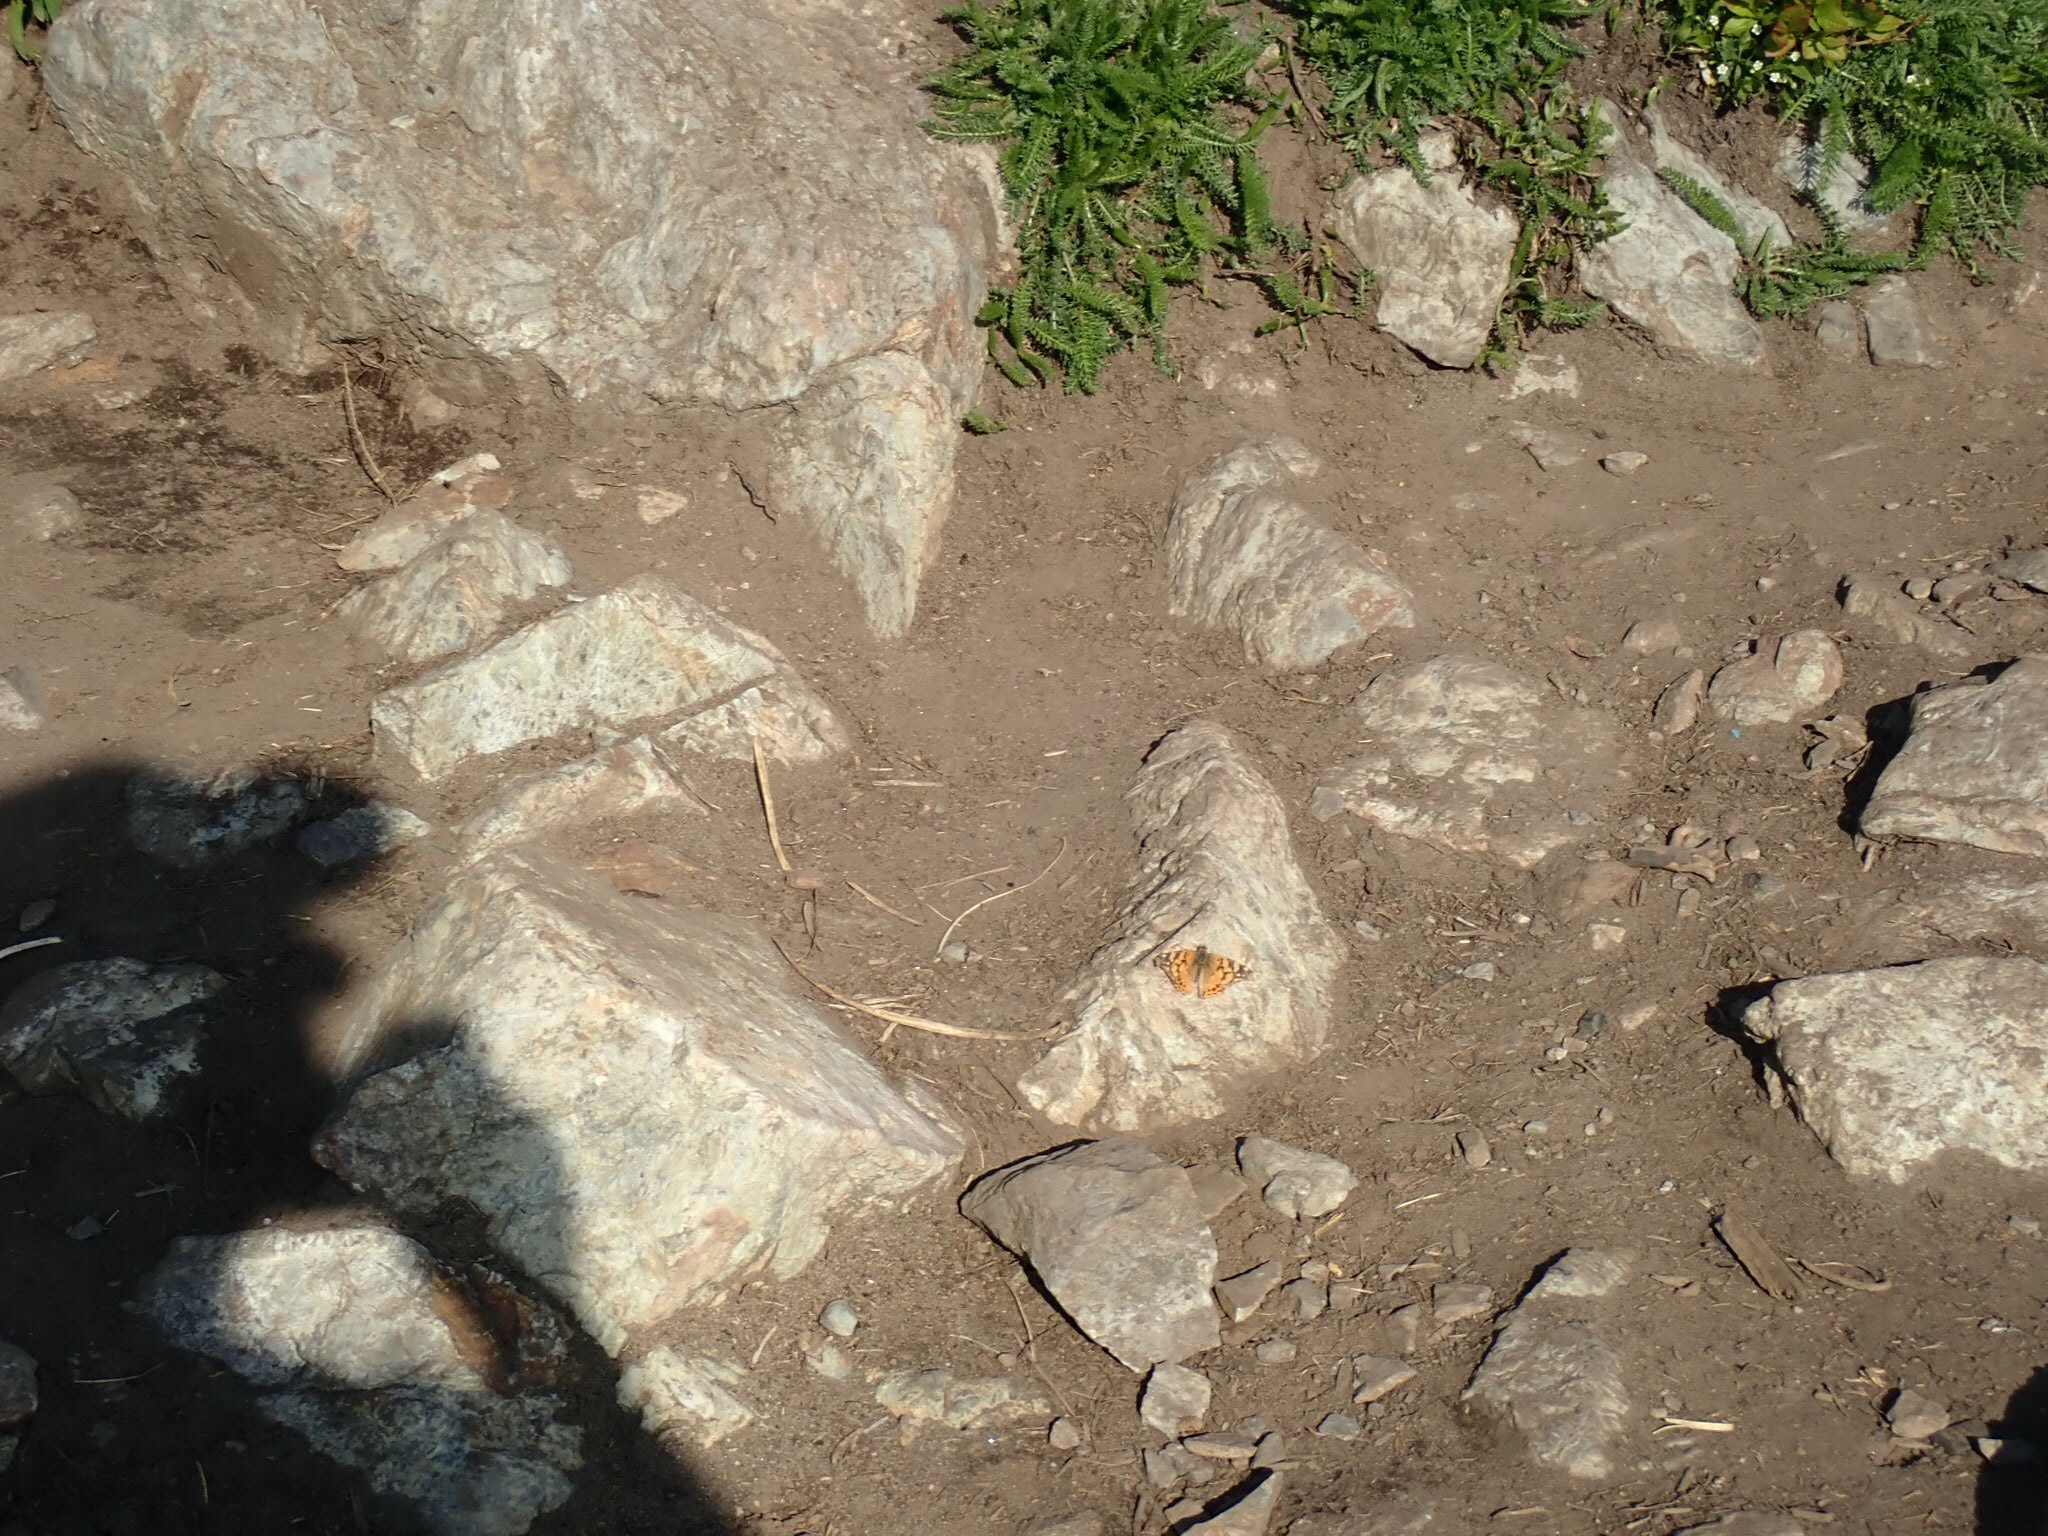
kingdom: Animalia
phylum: Arthropoda
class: Insecta
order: Lepidoptera
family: Nymphalidae
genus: Vanessa
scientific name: Vanessa annabella
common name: West coast lady
